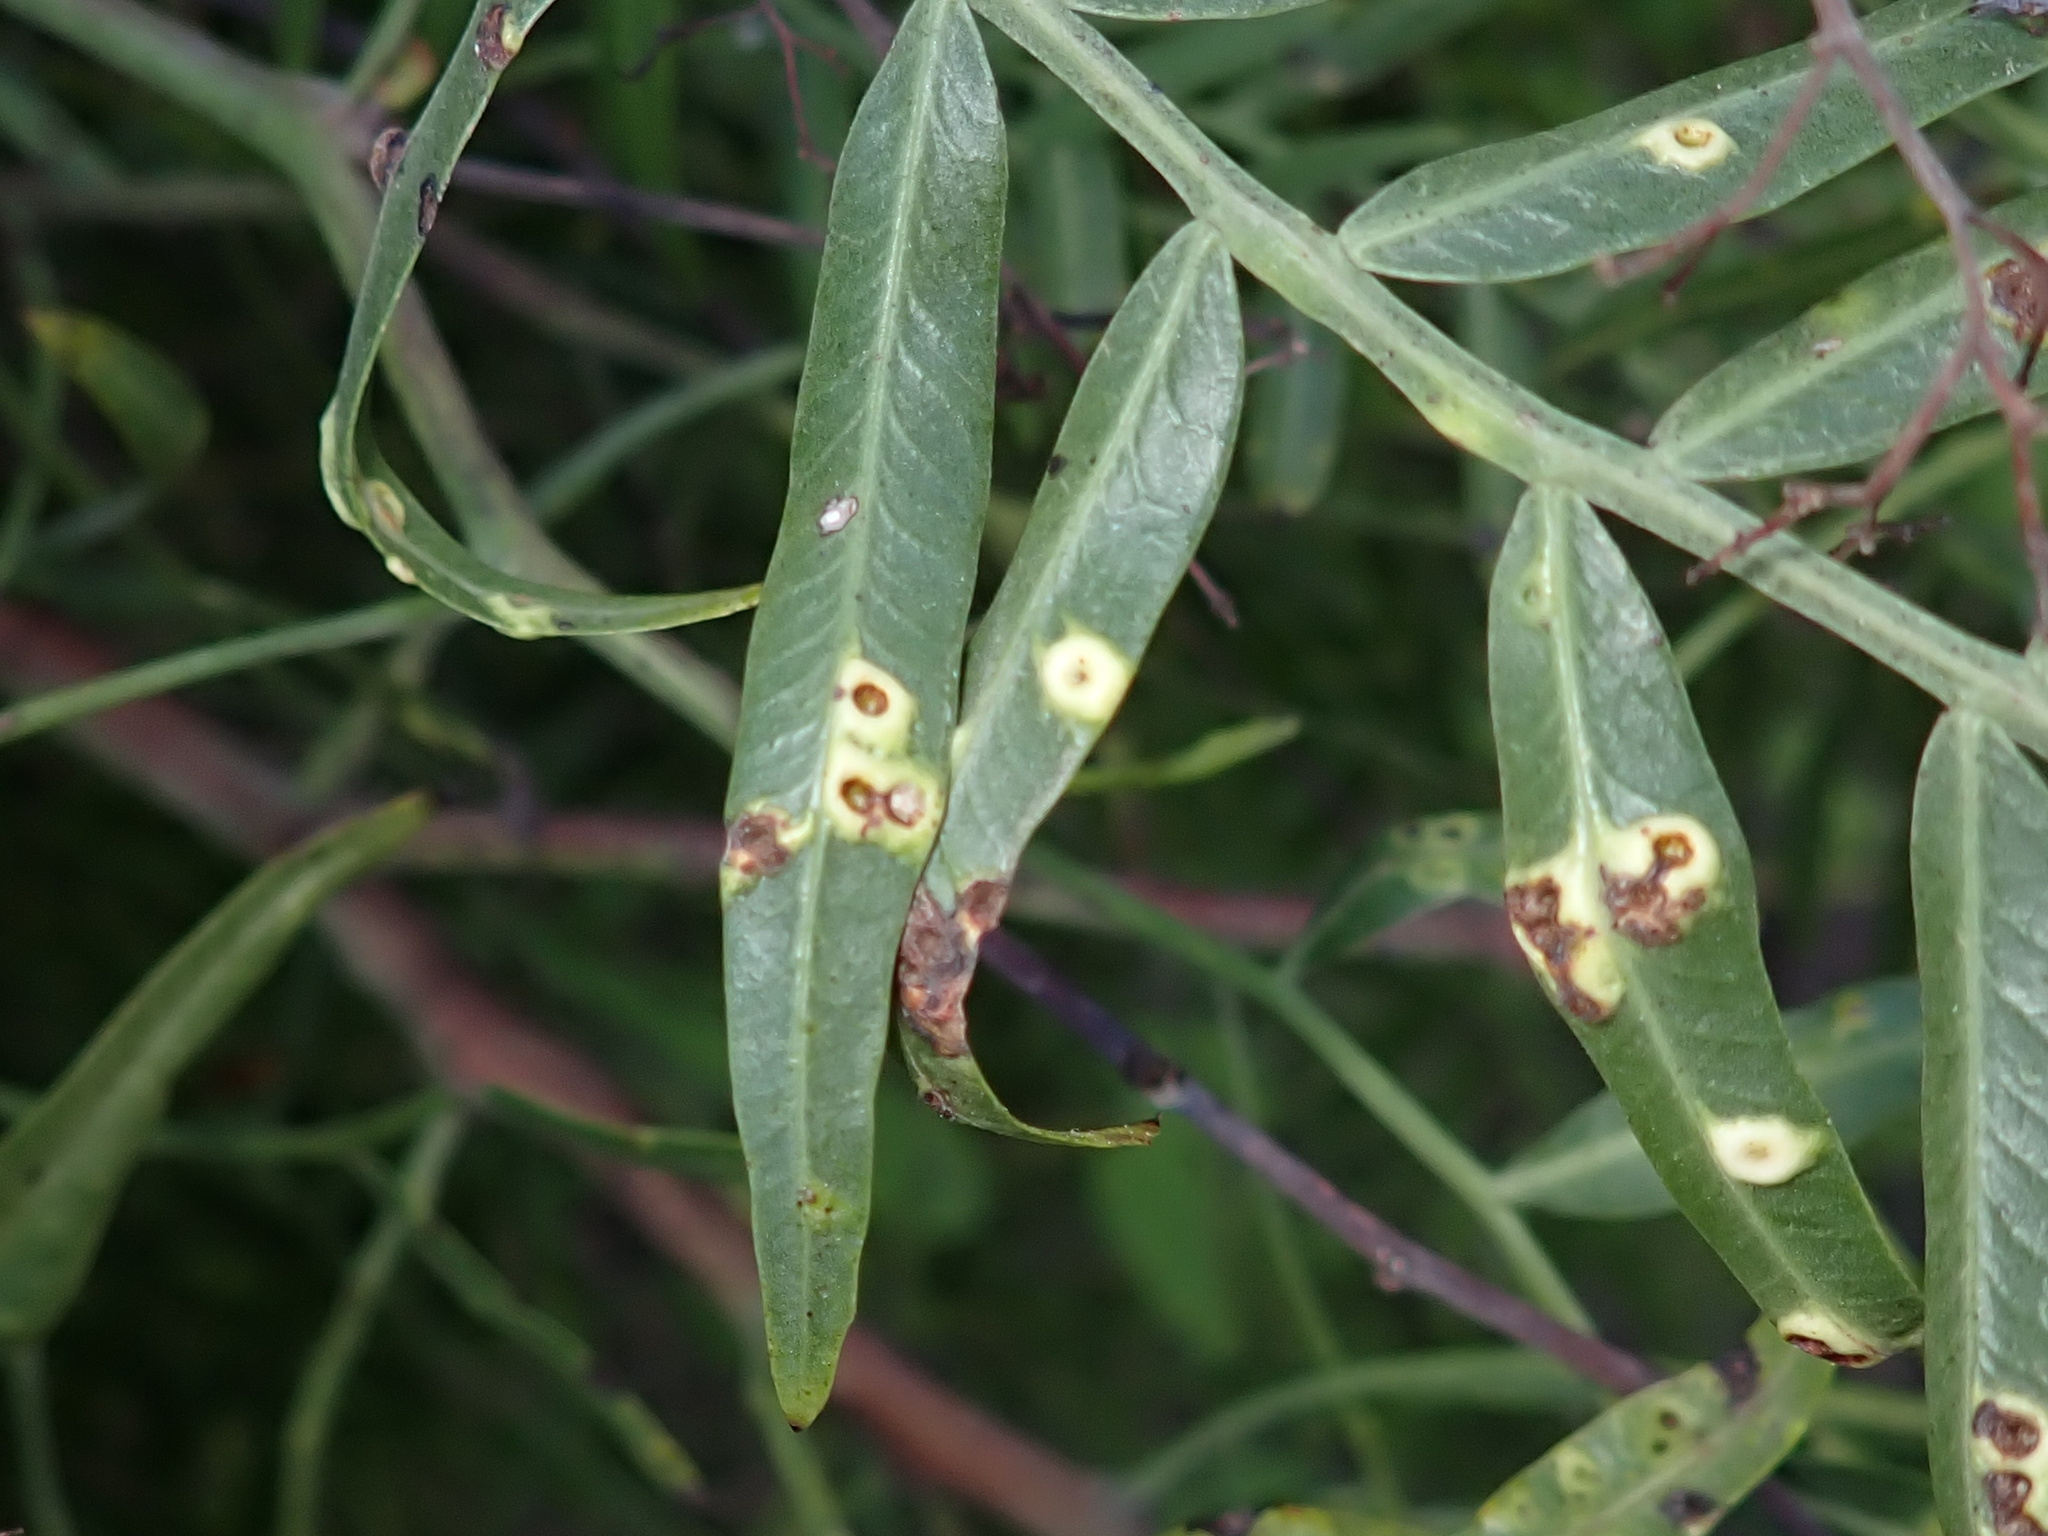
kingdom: Animalia
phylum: Arthropoda
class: Insecta
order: Hemiptera
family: Calophyidae
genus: Calophya
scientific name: Calophya schini
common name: Pepper tree psyllid
